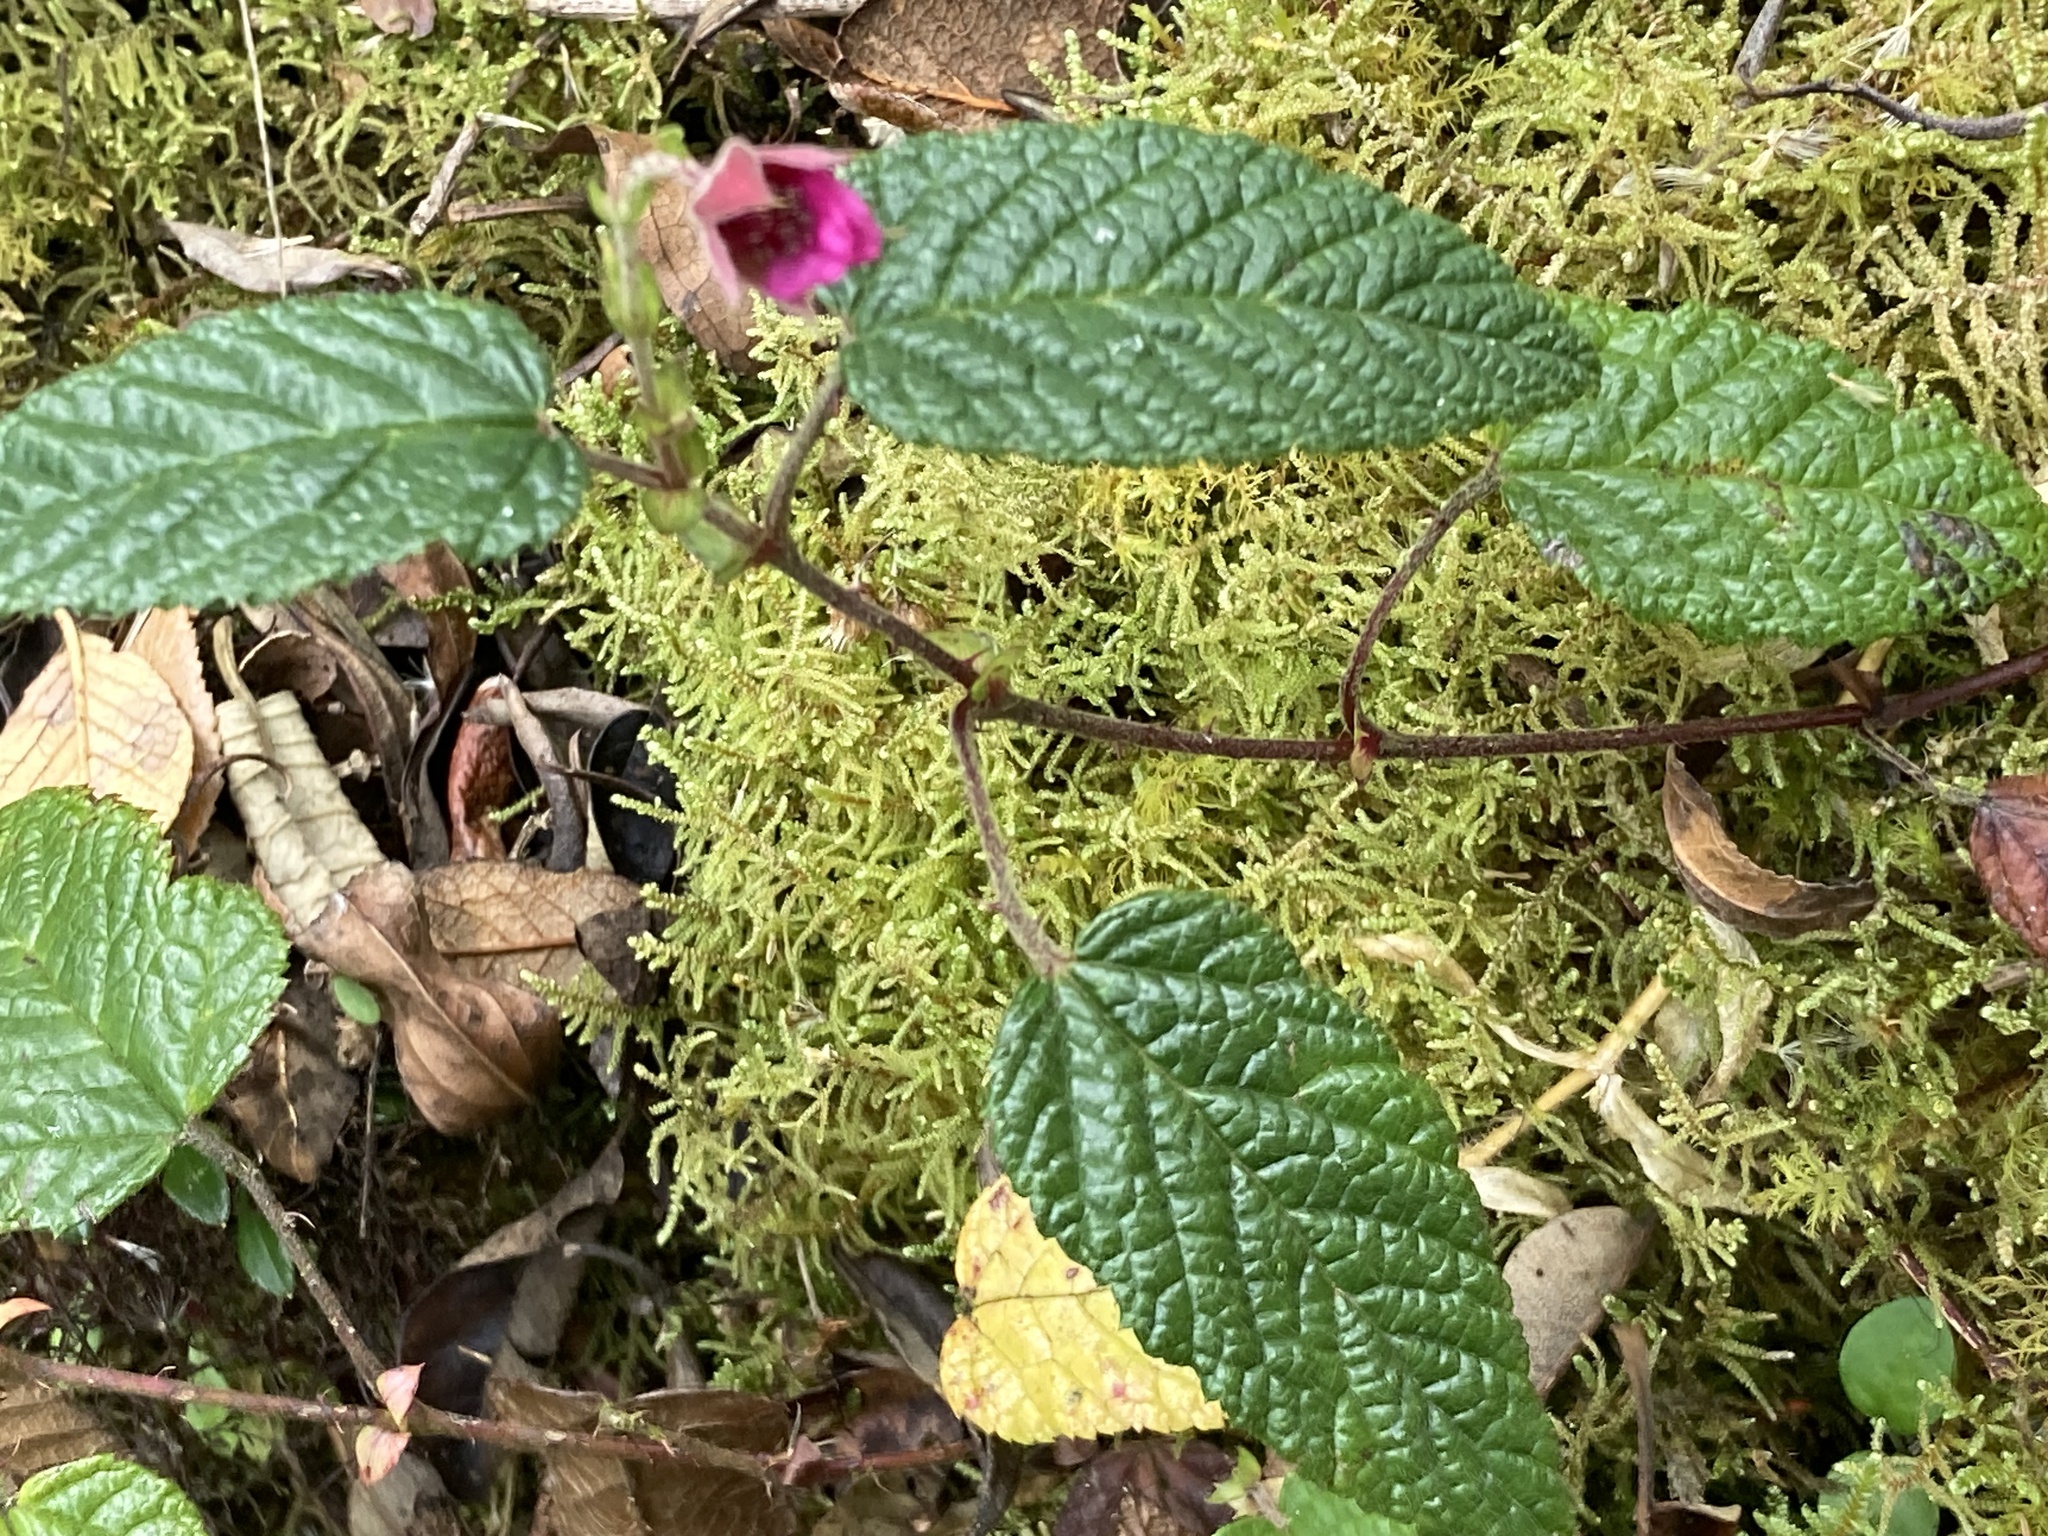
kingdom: Plantae
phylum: Tracheophyta
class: Magnoliopsida
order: Rosales
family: Rosaceae
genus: Rubus
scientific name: Rubus acanthophyllos
